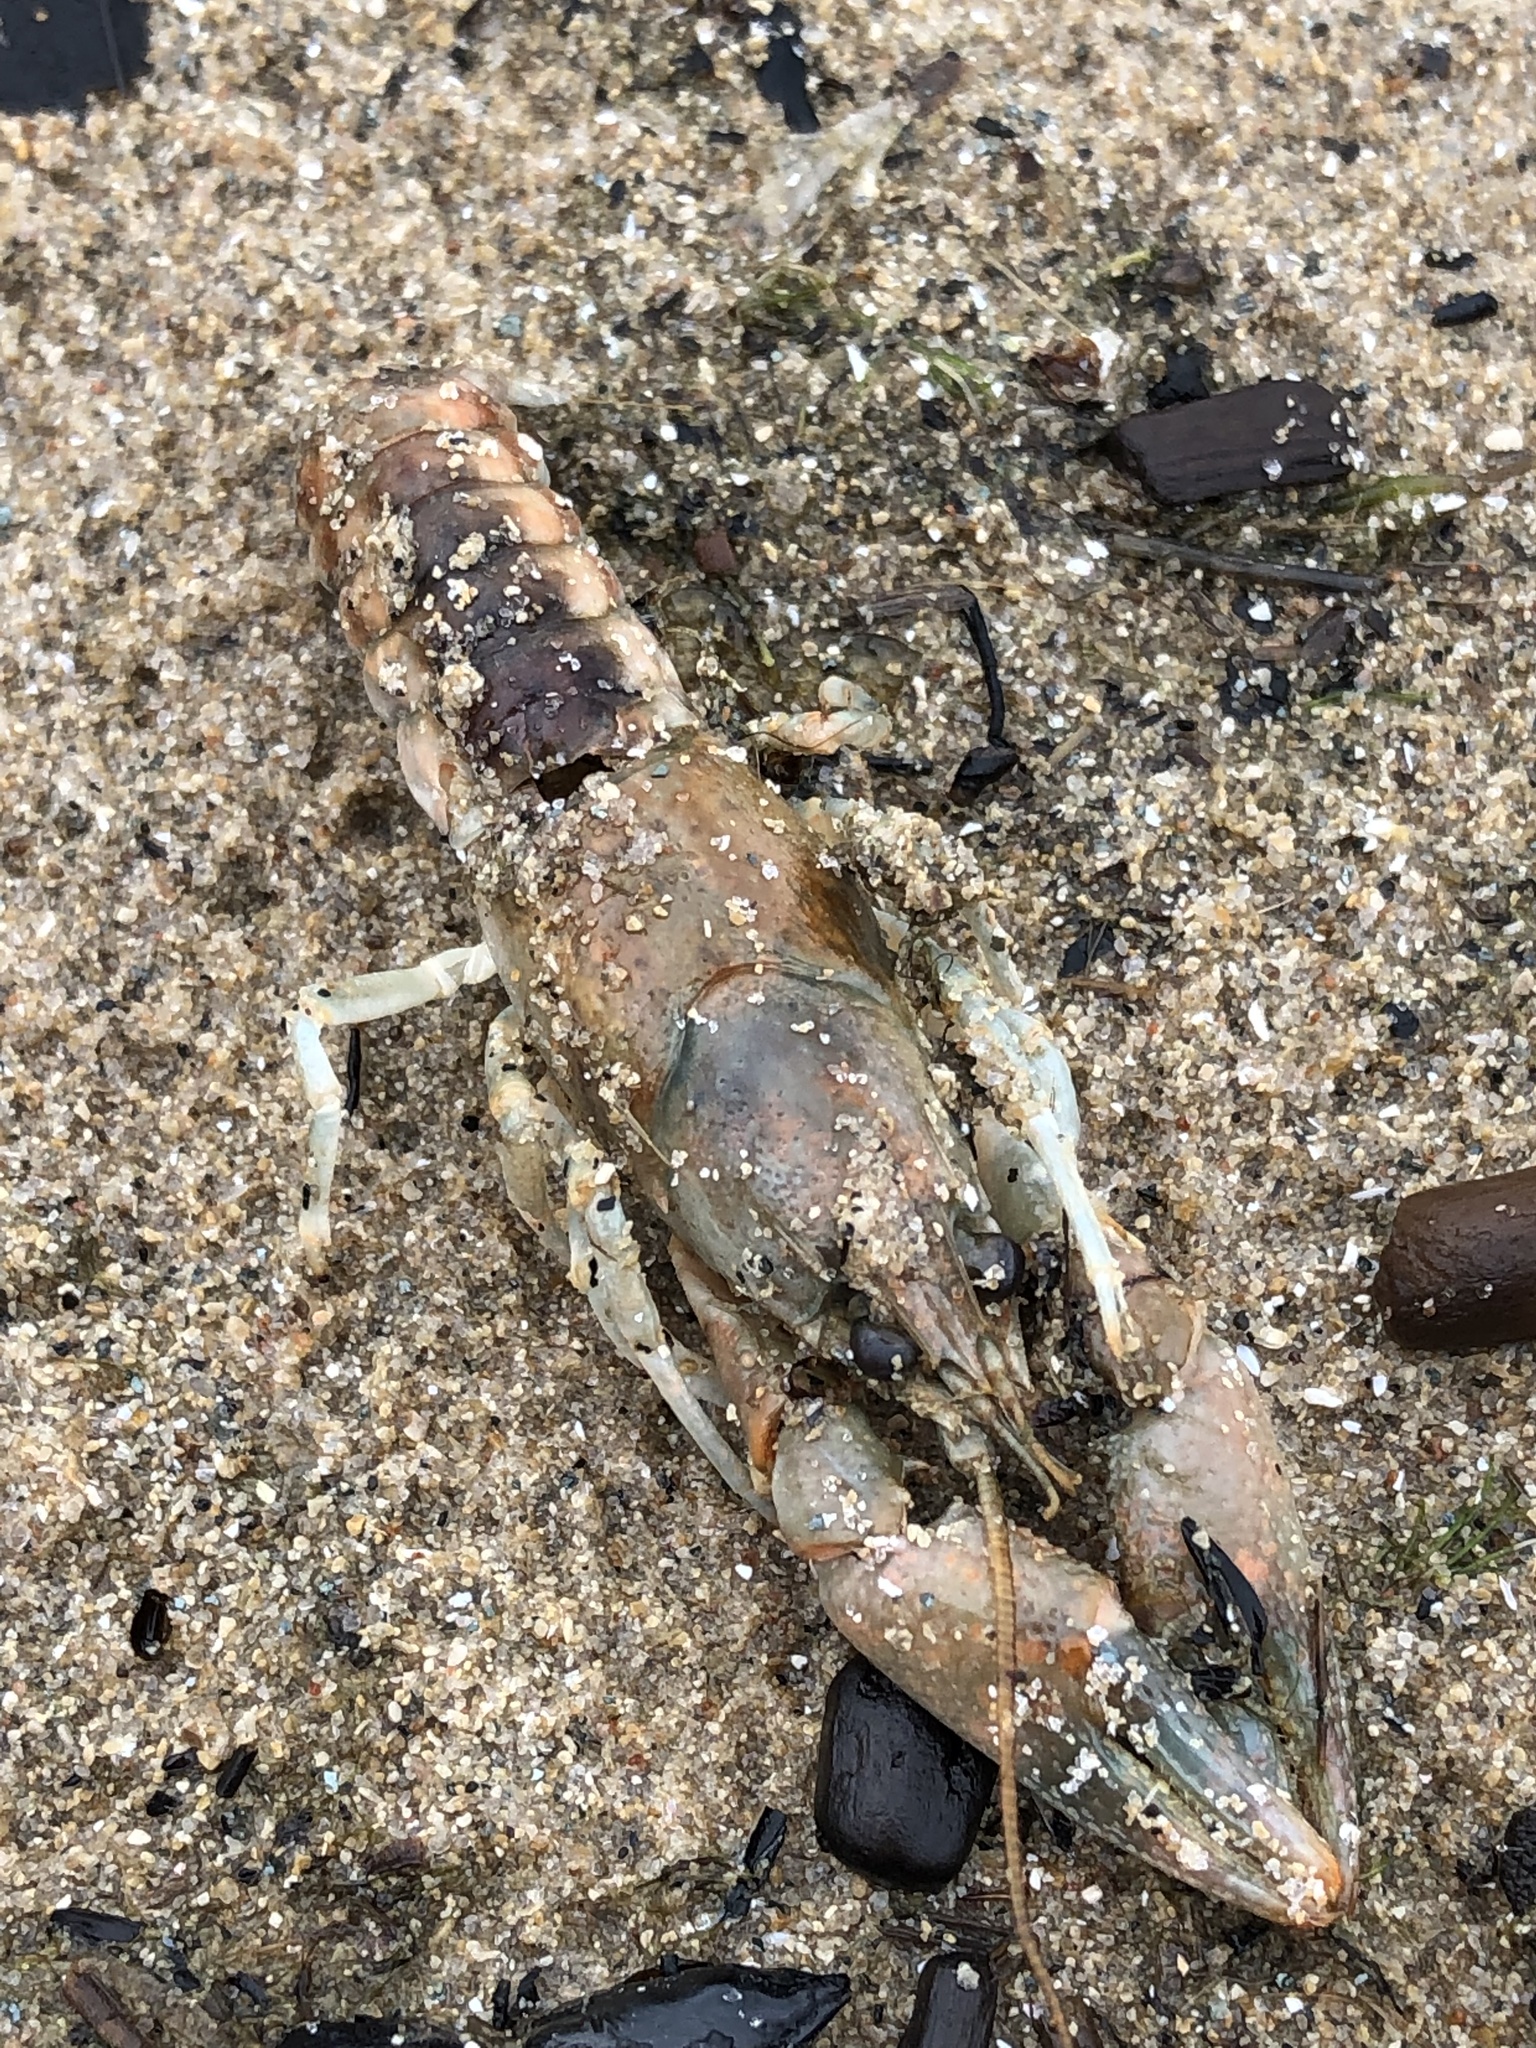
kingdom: Animalia
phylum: Arthropoda
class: Malacostraca
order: Decapoda
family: Cambaridae
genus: Faxonius
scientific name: Faxonius propinquus
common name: Northern clearwater crayfish
